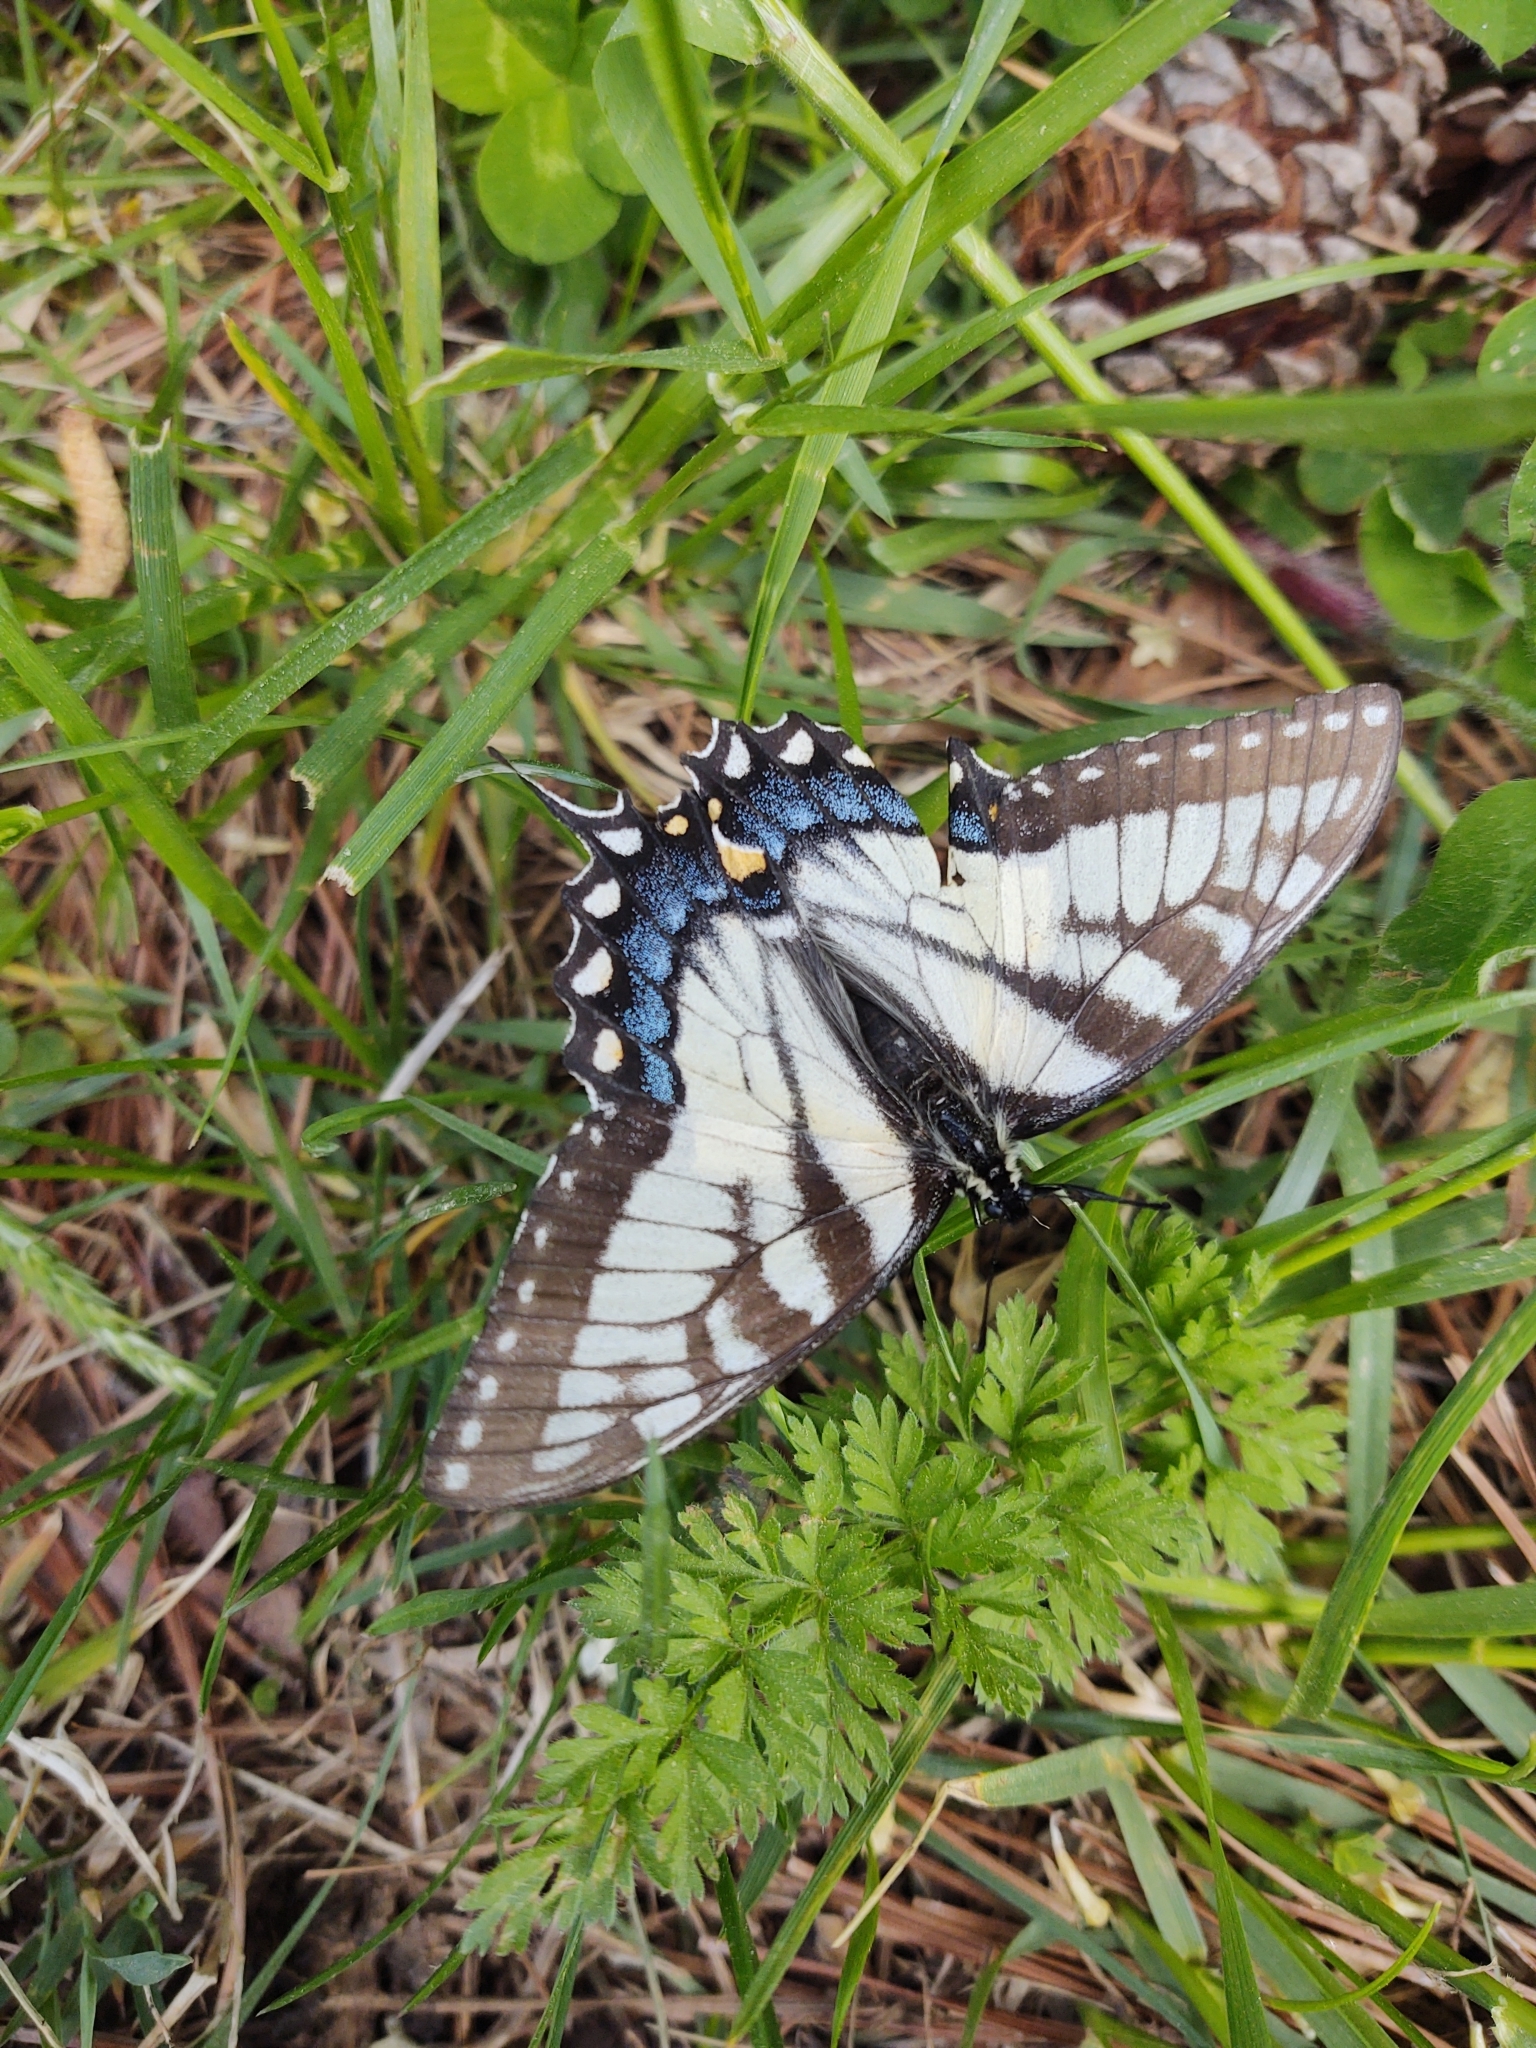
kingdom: Animalia
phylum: Arthropoda
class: Insecta
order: Lepidoptera
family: Papilionidae
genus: Papilio
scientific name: Papilio glaucus
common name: Tiger swallowtail
